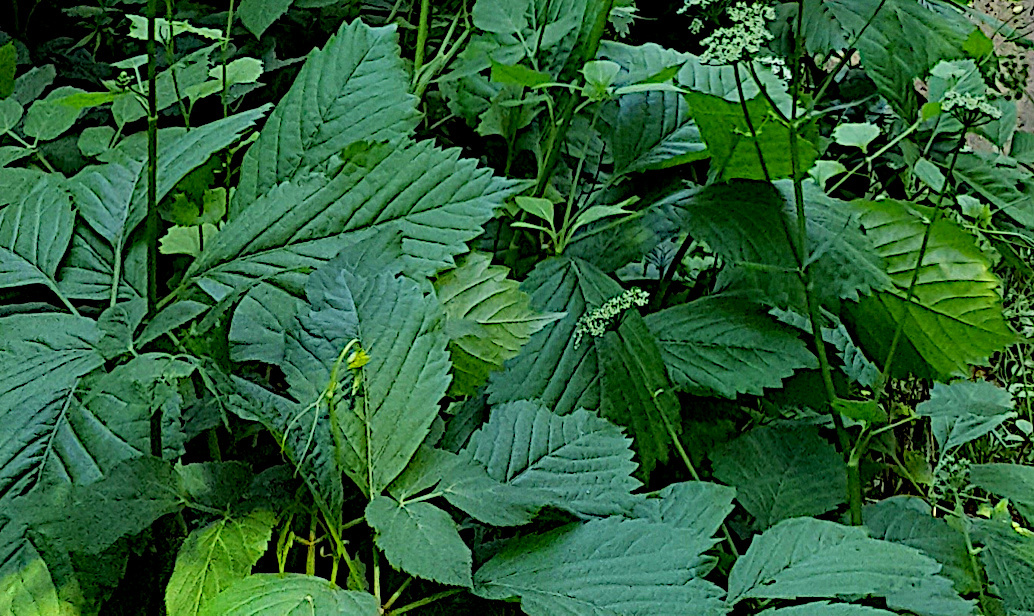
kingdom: Plantae
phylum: Tracheophyta
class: Magnoliopsida
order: Vitales
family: Vitaceae
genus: Parthenocissus
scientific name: Parthenocissus inserta
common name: False virginia-creeper
